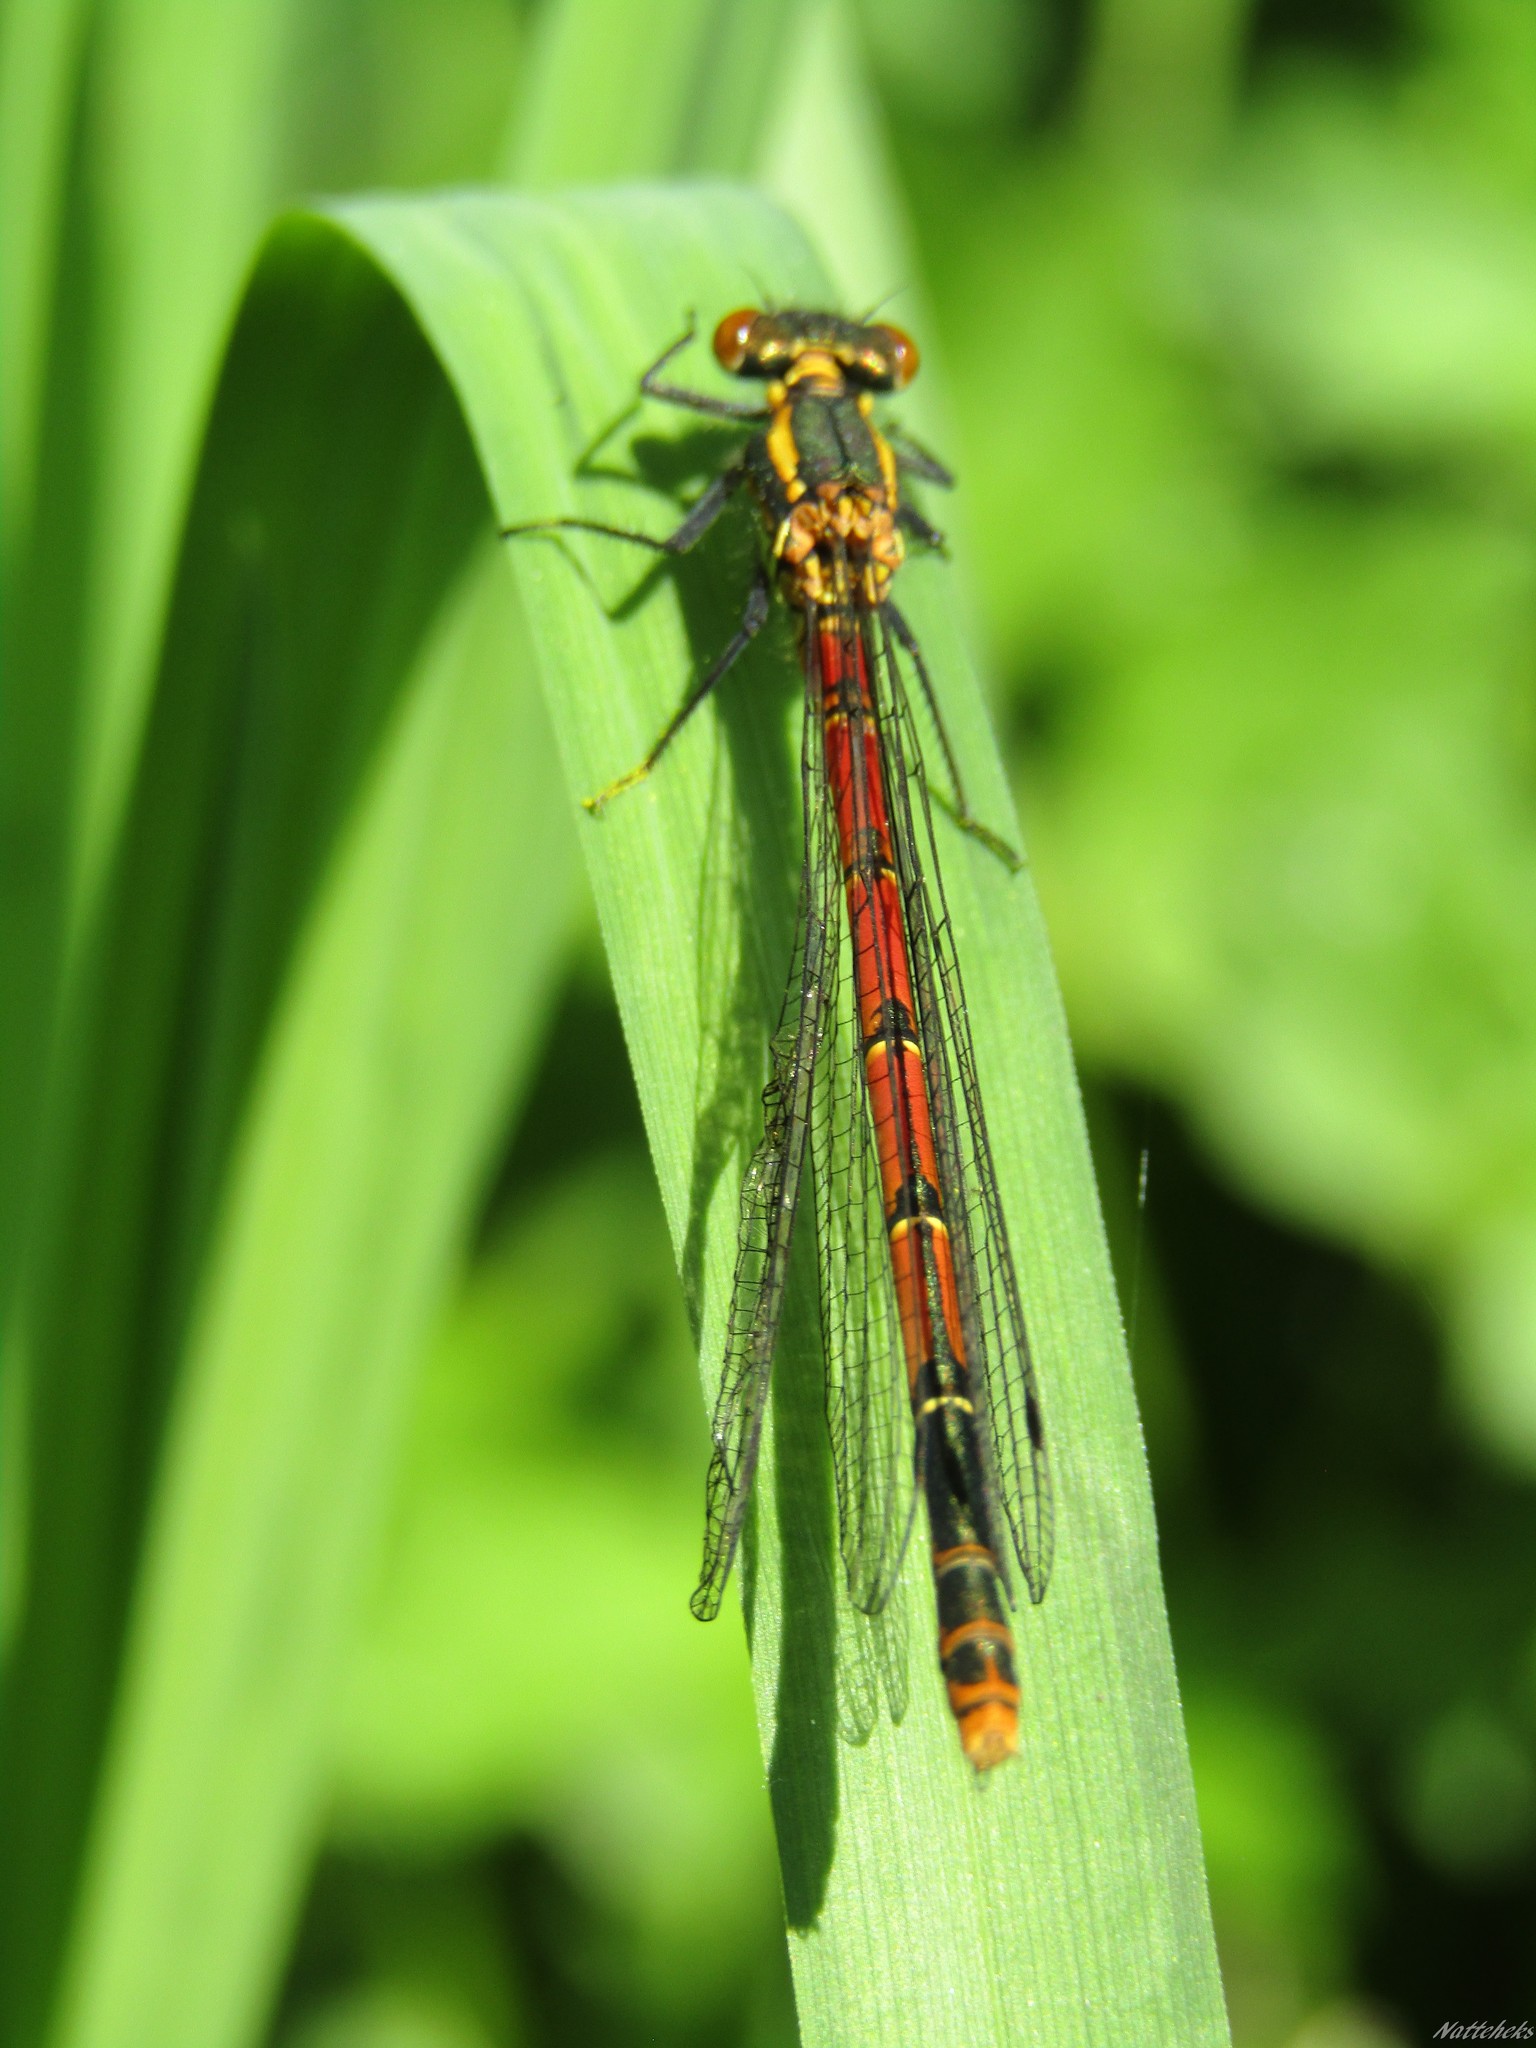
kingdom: Animalia
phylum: Arthropoda
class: Insecta
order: Odonata
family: Coenagrionidae
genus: Pyrrhosoma
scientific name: Pyrrhosoma nymphula
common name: Large red damsel
